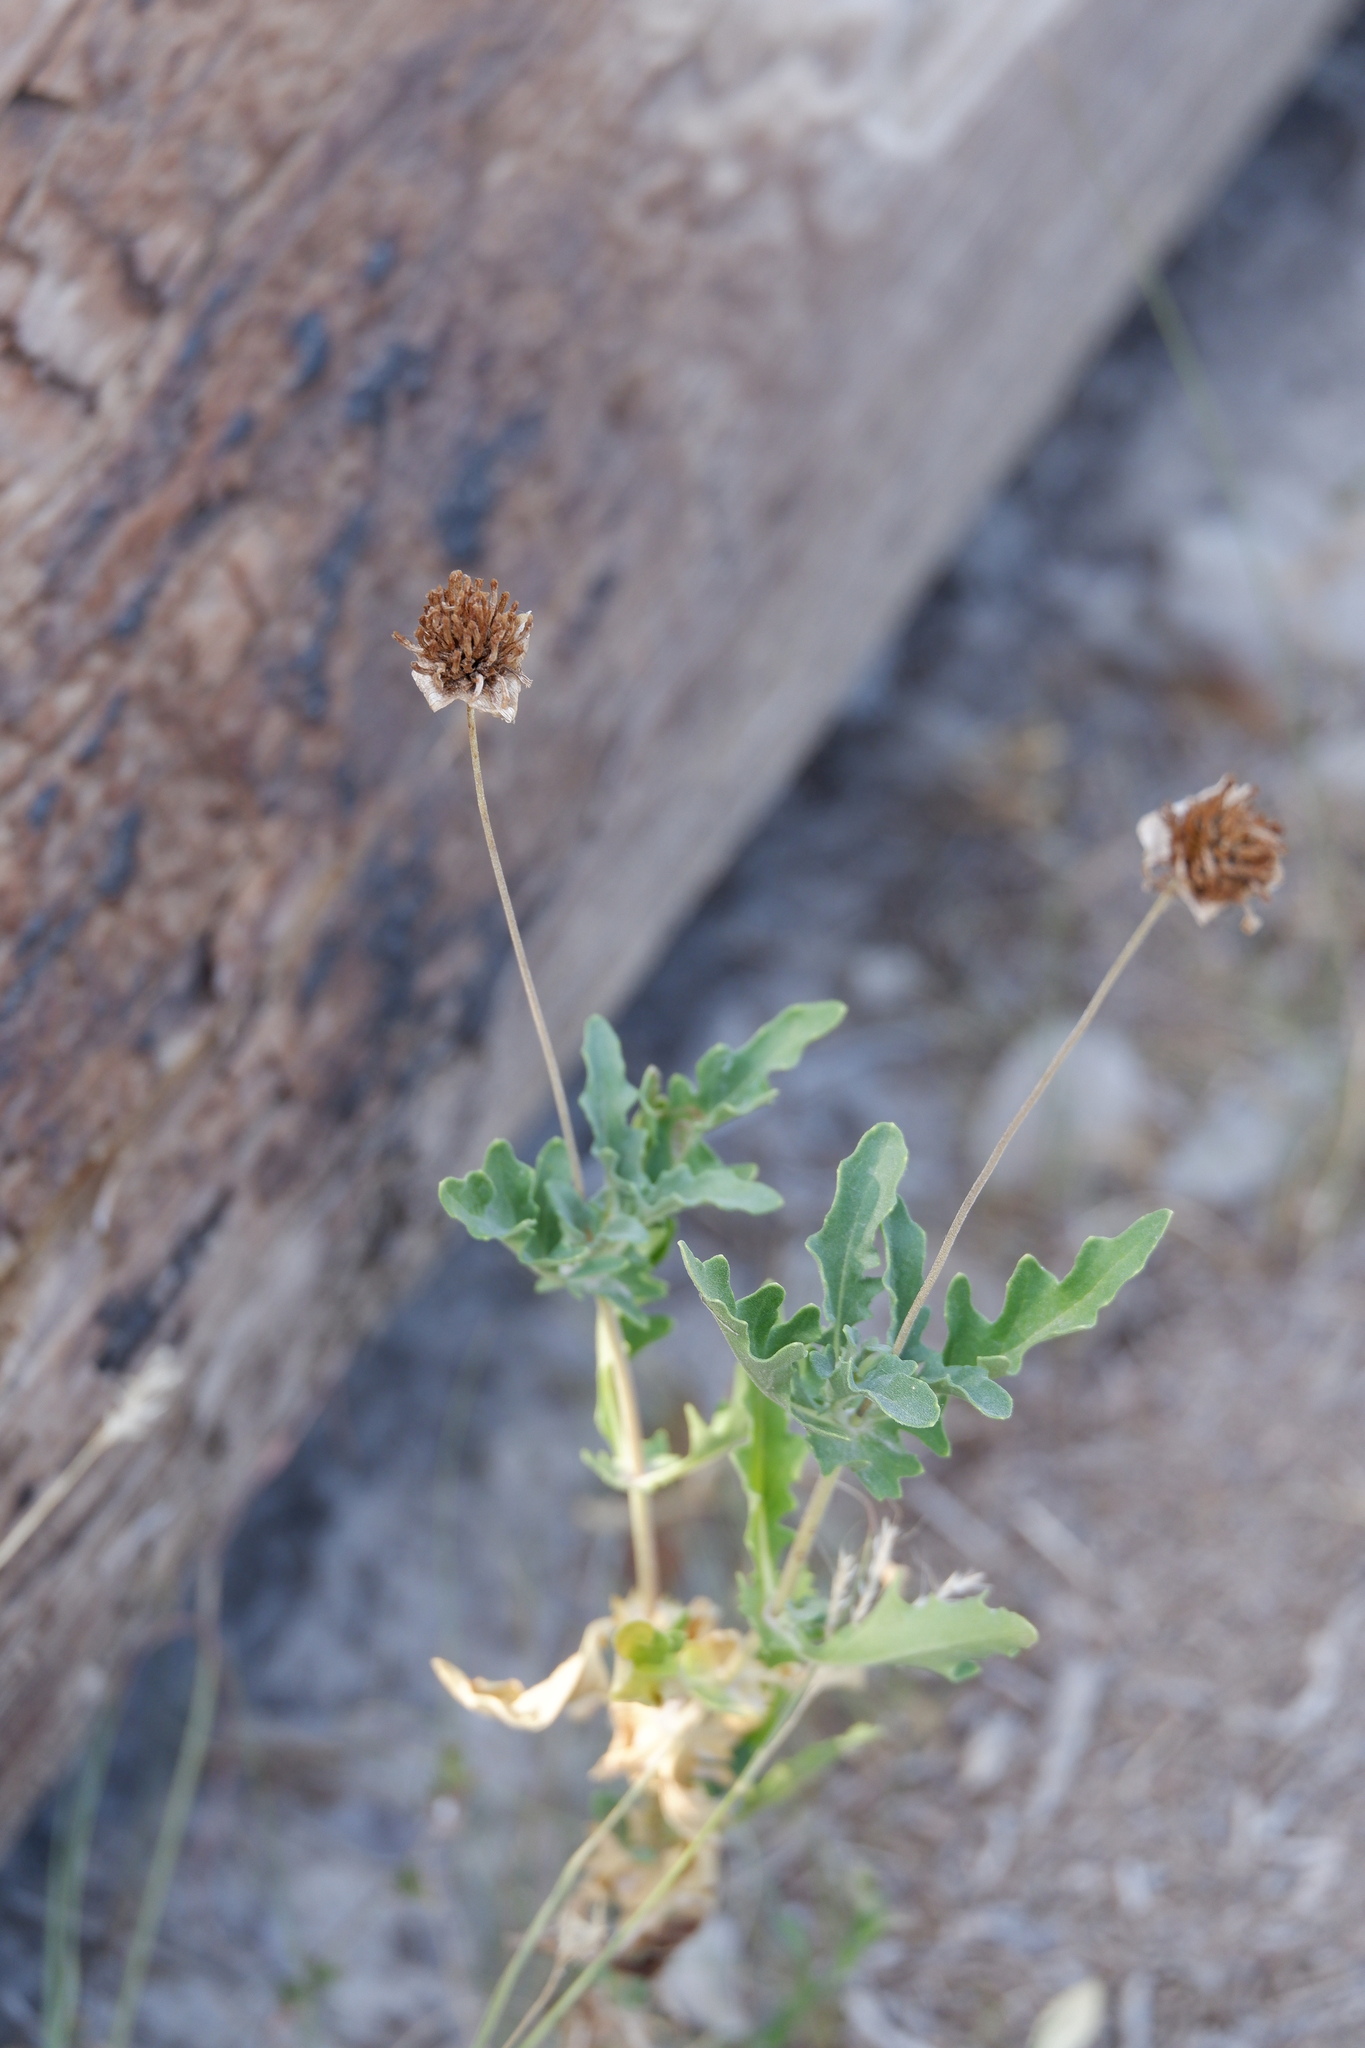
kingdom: Plantae
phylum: Tracheophyta
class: Magnoliopsida
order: Asterales
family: Asteraceae
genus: Tetragonotheca
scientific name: Tetragonotheca texana
